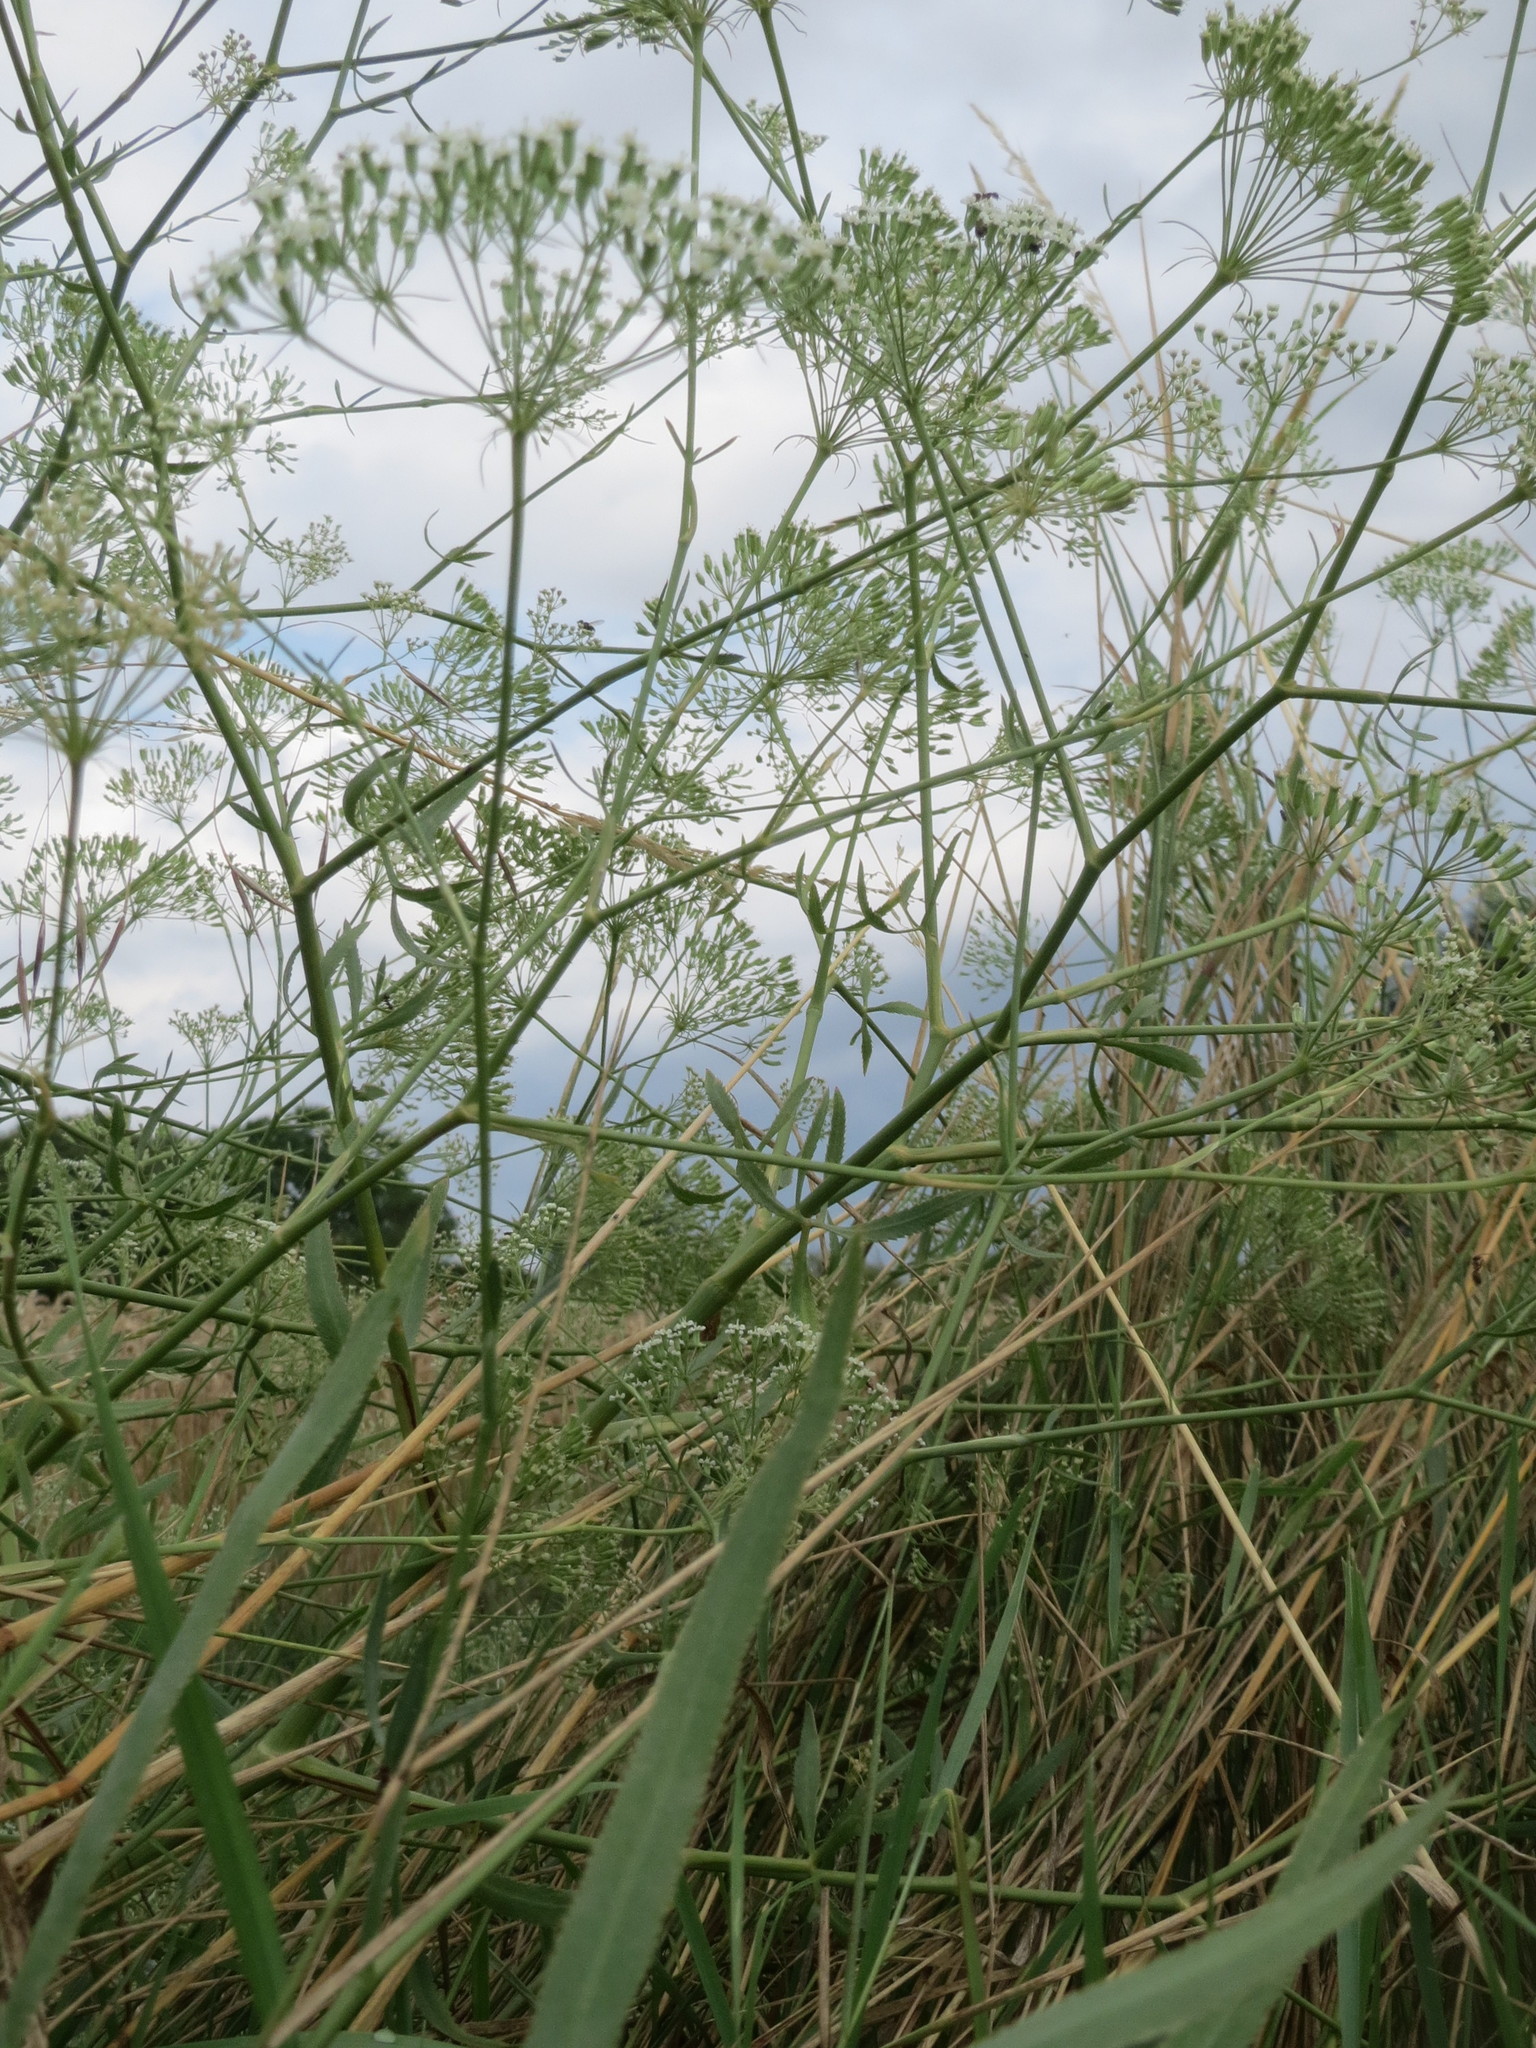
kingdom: Plantae
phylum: Tracheophyta
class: Magnoliopsida
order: Apiales
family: Apiaceae
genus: Falcaria
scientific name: Falcaria vulgaris
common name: Longleaf
